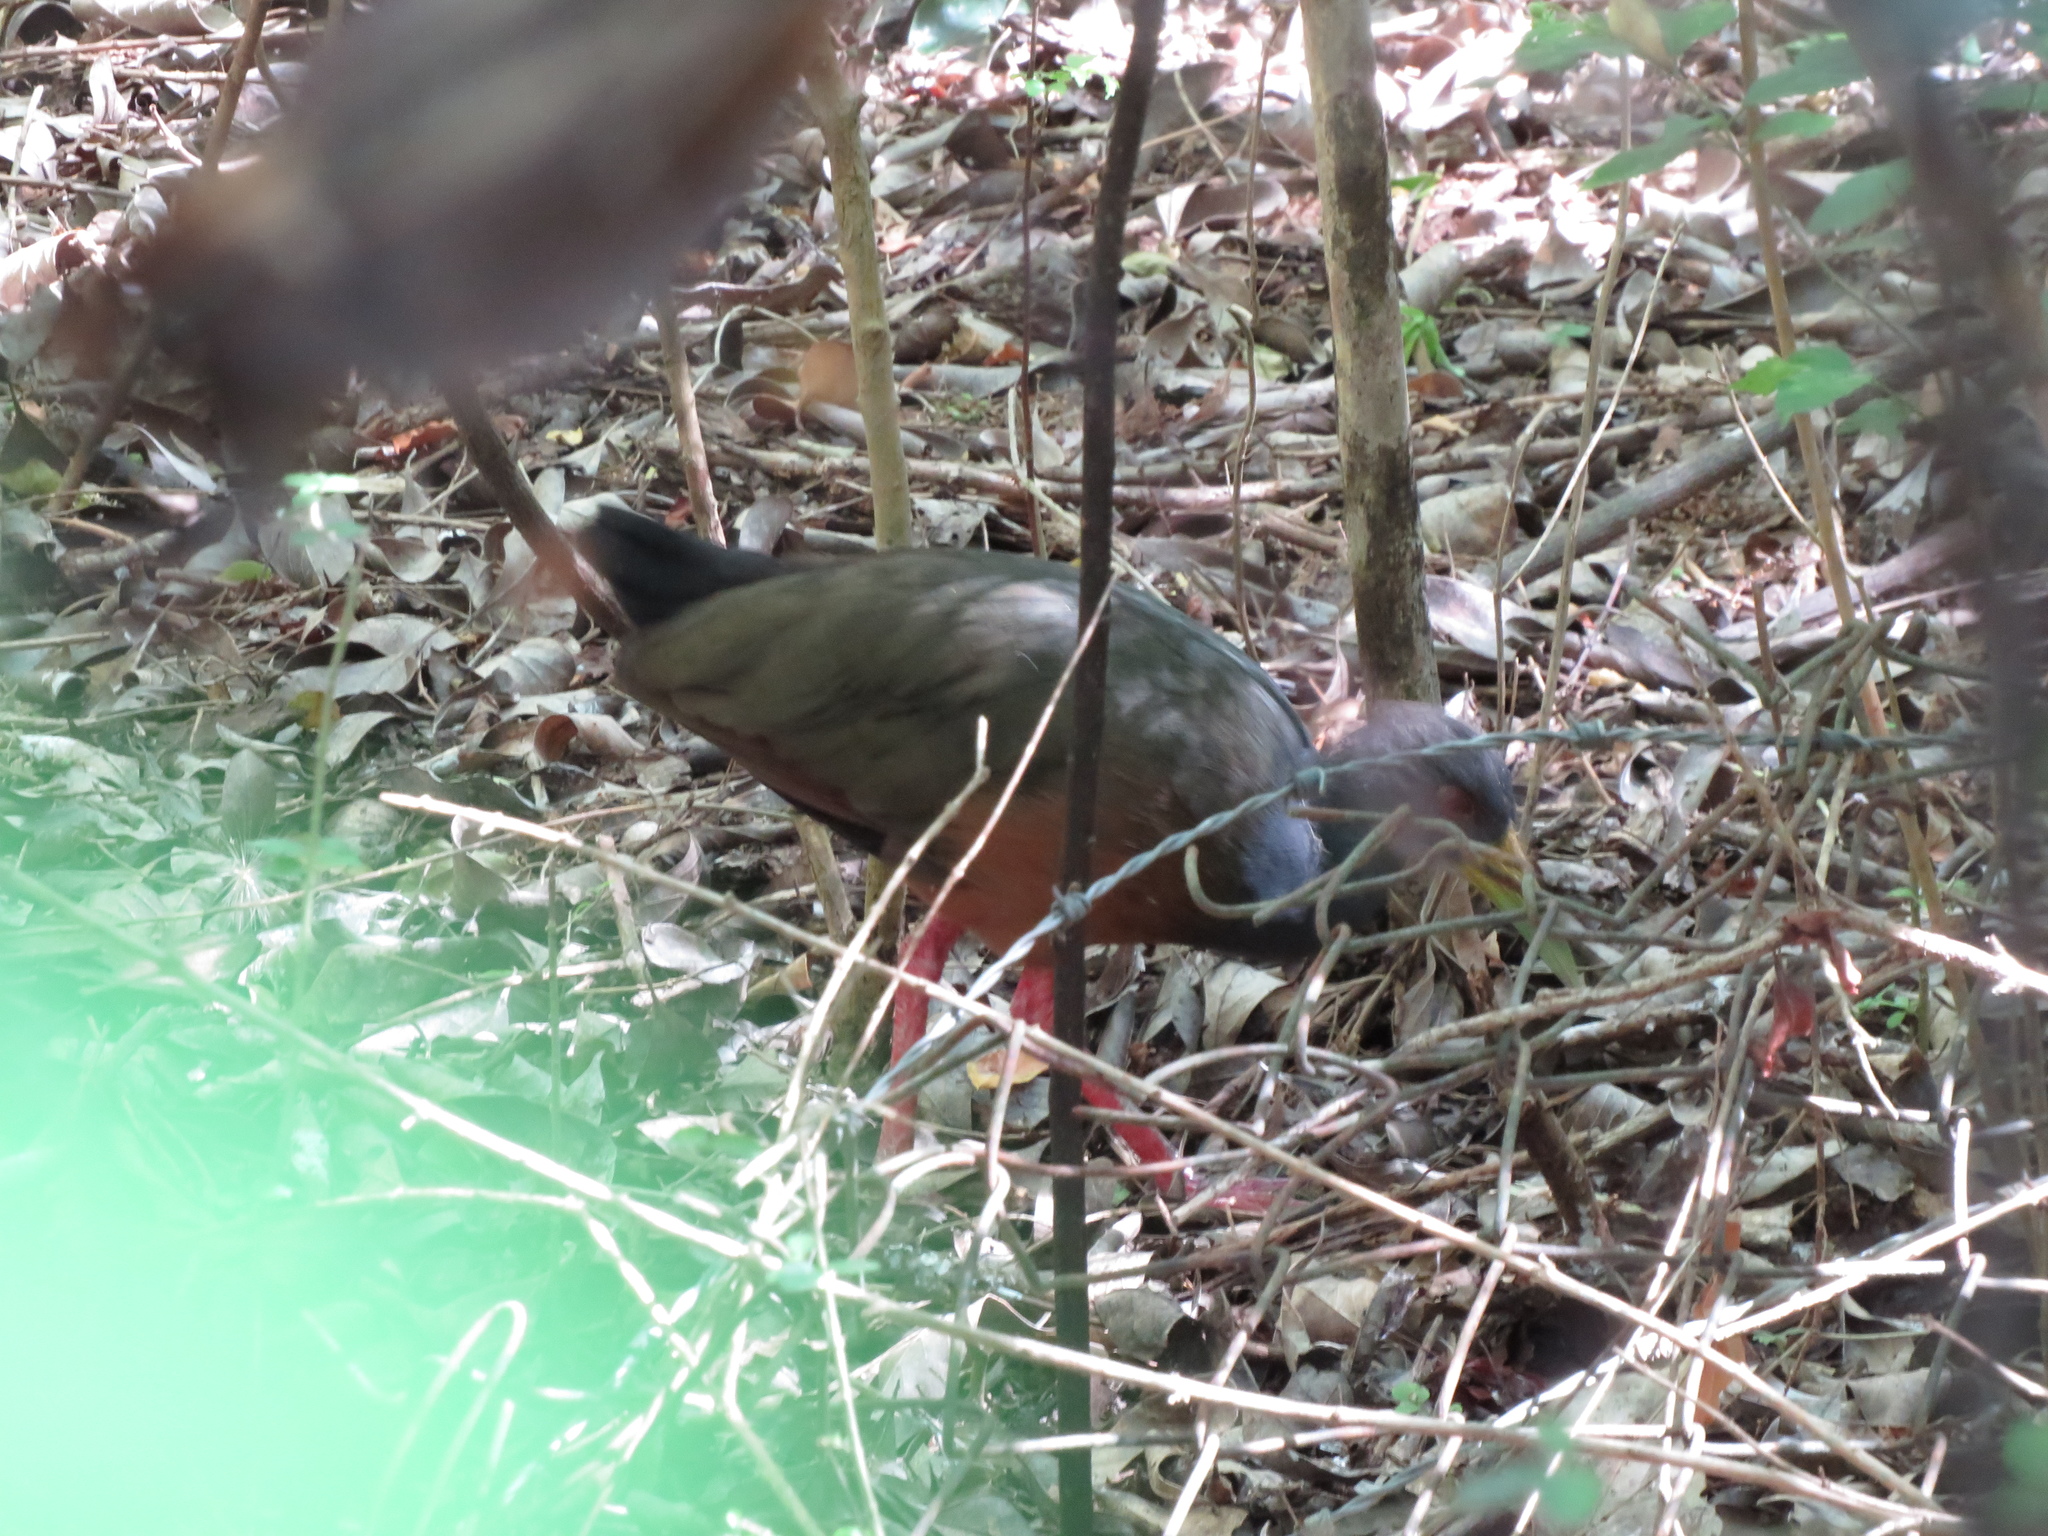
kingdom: Animalia
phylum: Chordata
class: Aves
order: Gruiformes
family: Rallidae
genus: Aramides
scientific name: Aramides cajanea
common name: Gray-necked wood-rail
